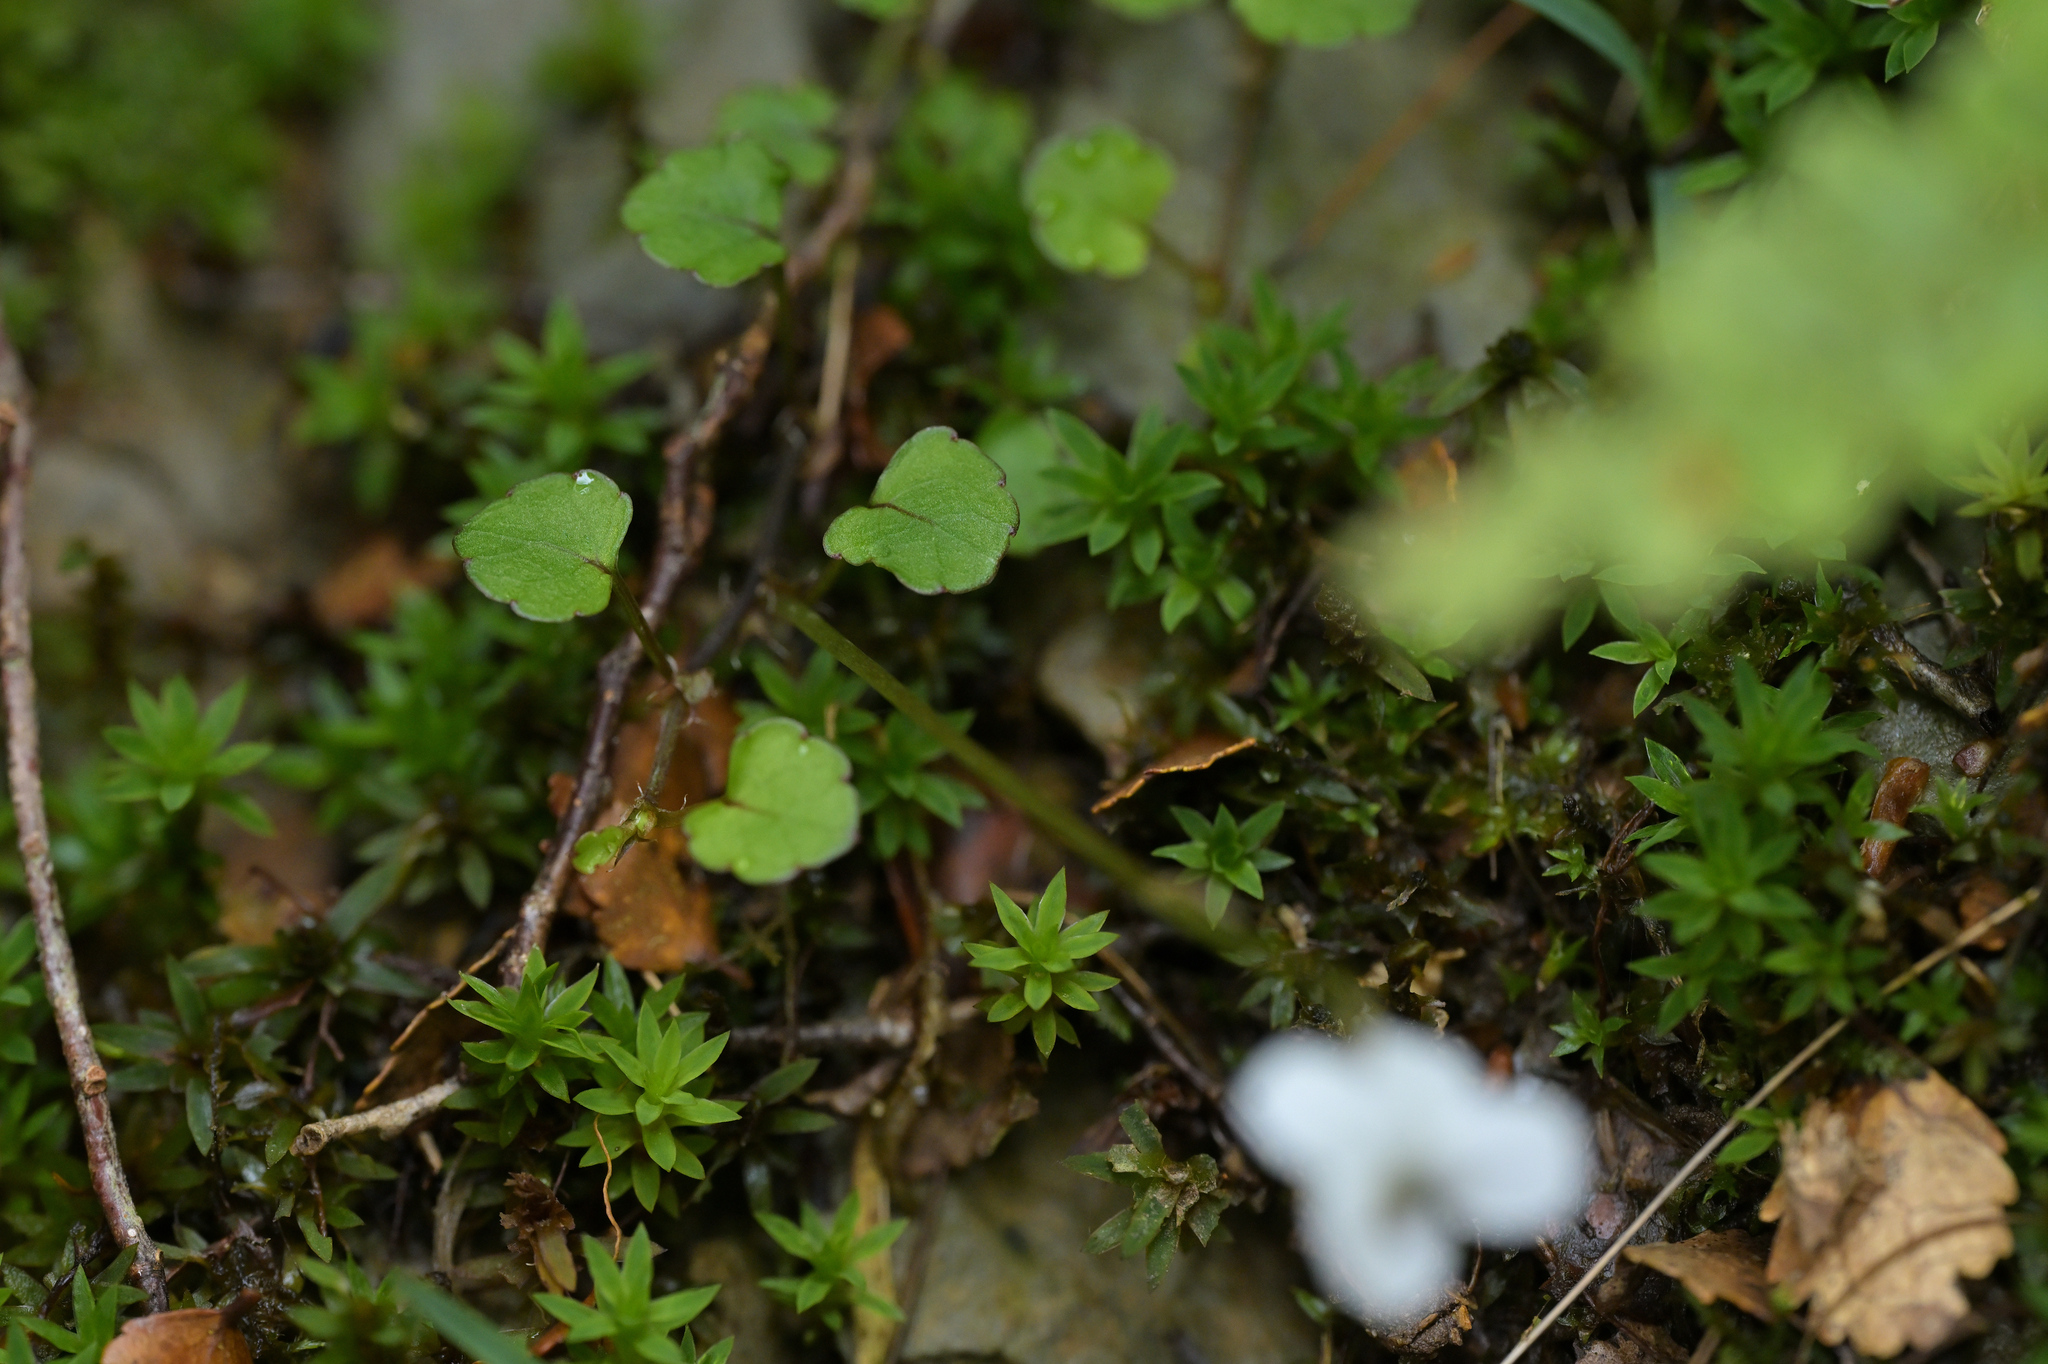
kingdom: Plantae
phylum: Tracheophyta
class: Magnoliopsida
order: Malpighiales
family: Violaceae
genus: Viola
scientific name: Viola filicaulis
